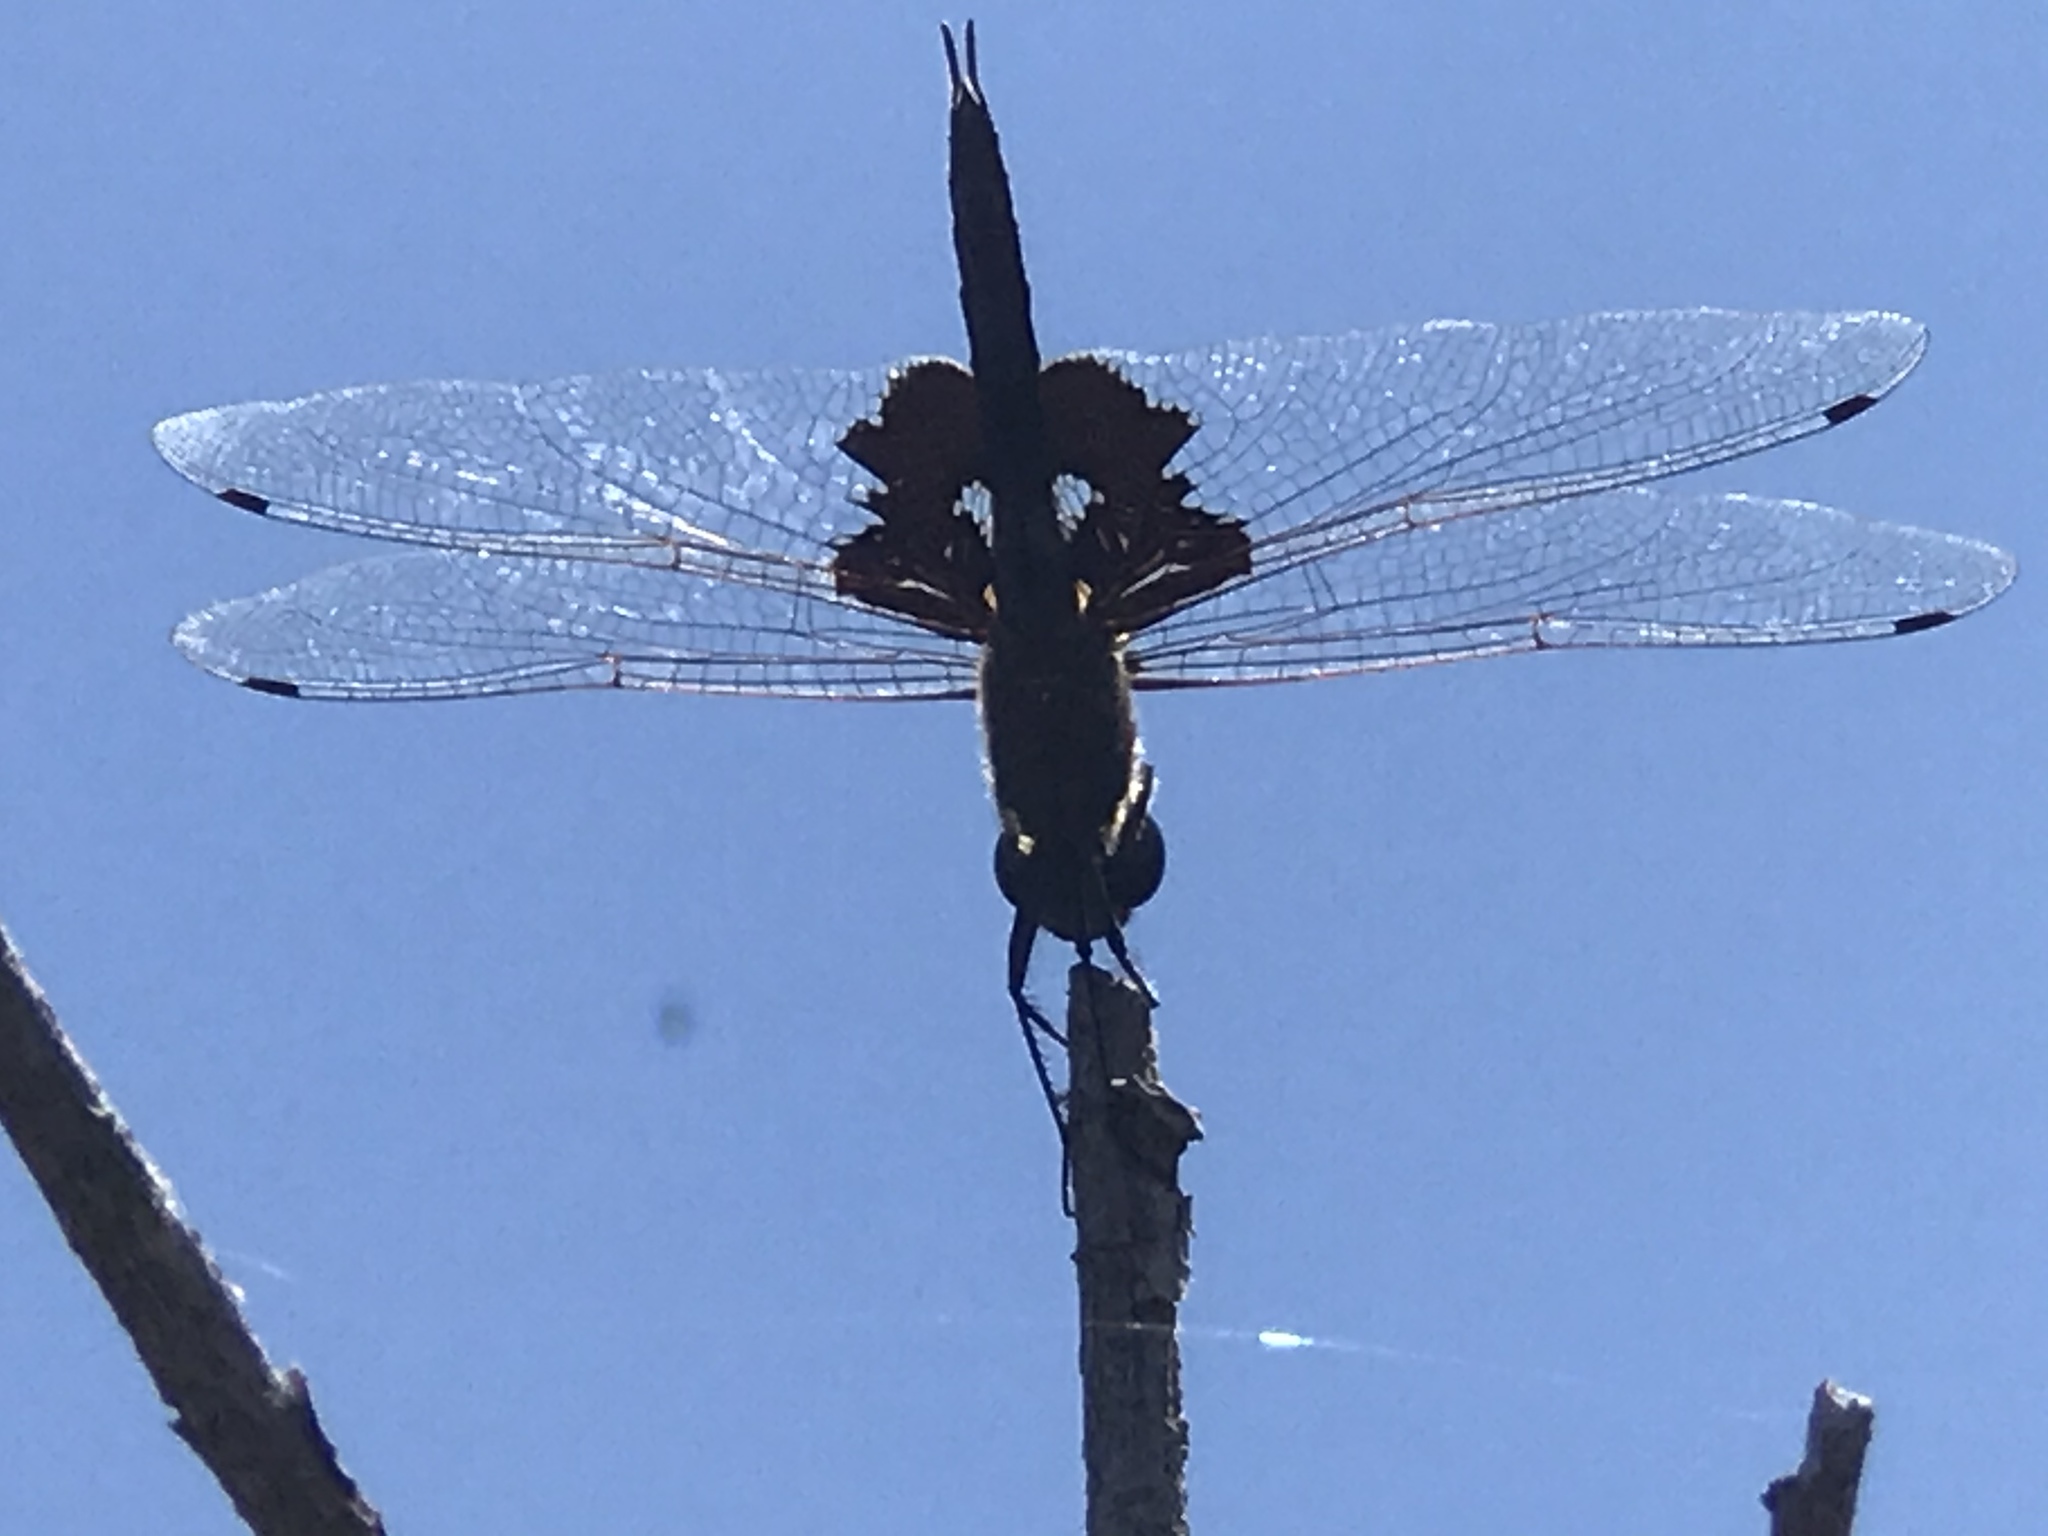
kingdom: Animalia
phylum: Arthropoda
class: Insecta
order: Odonata
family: Libellulidae
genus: Tramea
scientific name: Tramea lacerata
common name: Black saddlebags
